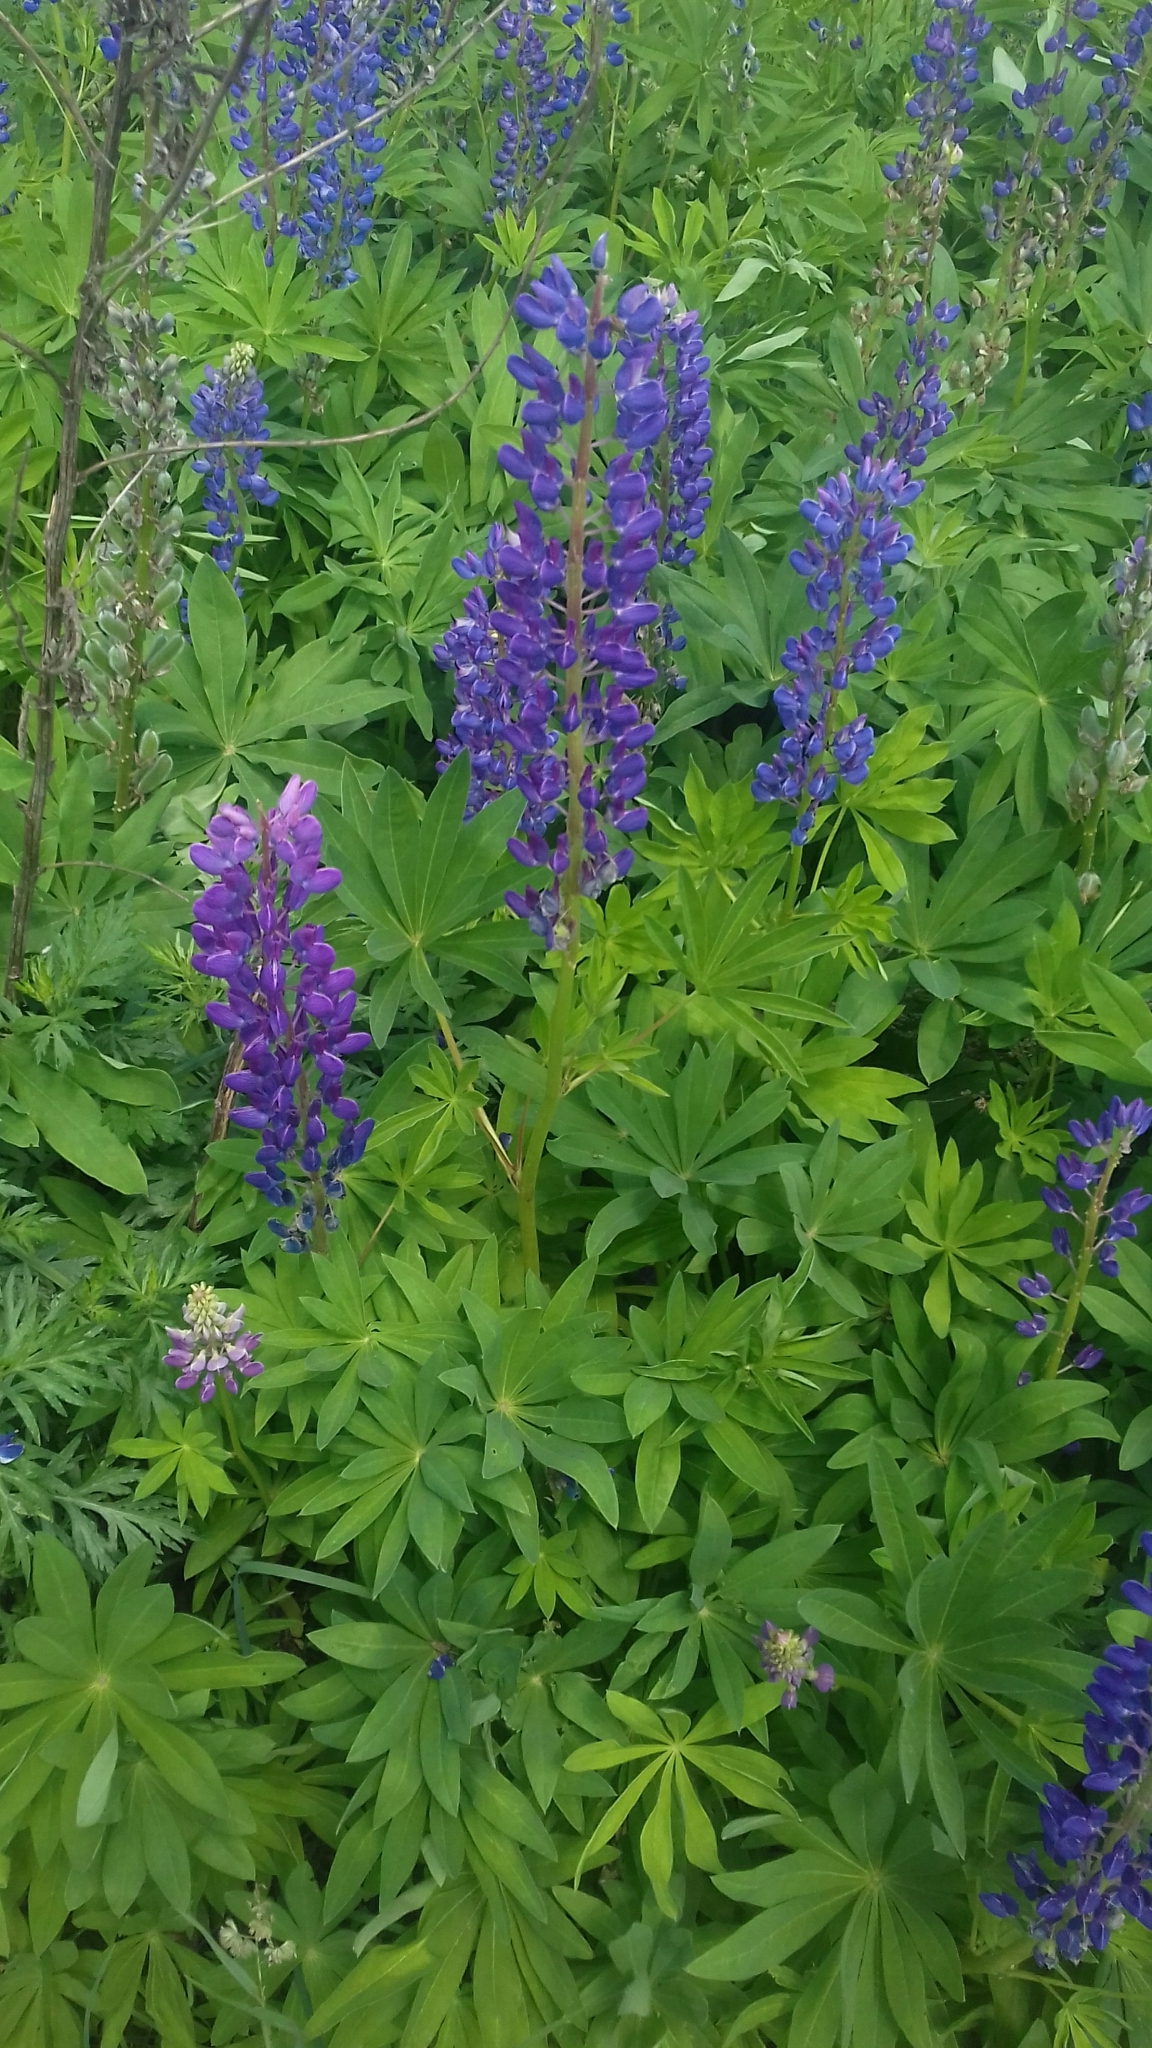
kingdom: Plantae
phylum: Tracheophyta
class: Magnoliopsida
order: Fabales
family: Fabaceae
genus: Lupinus
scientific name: Lupinus polyphyllus
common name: Garden lupin
